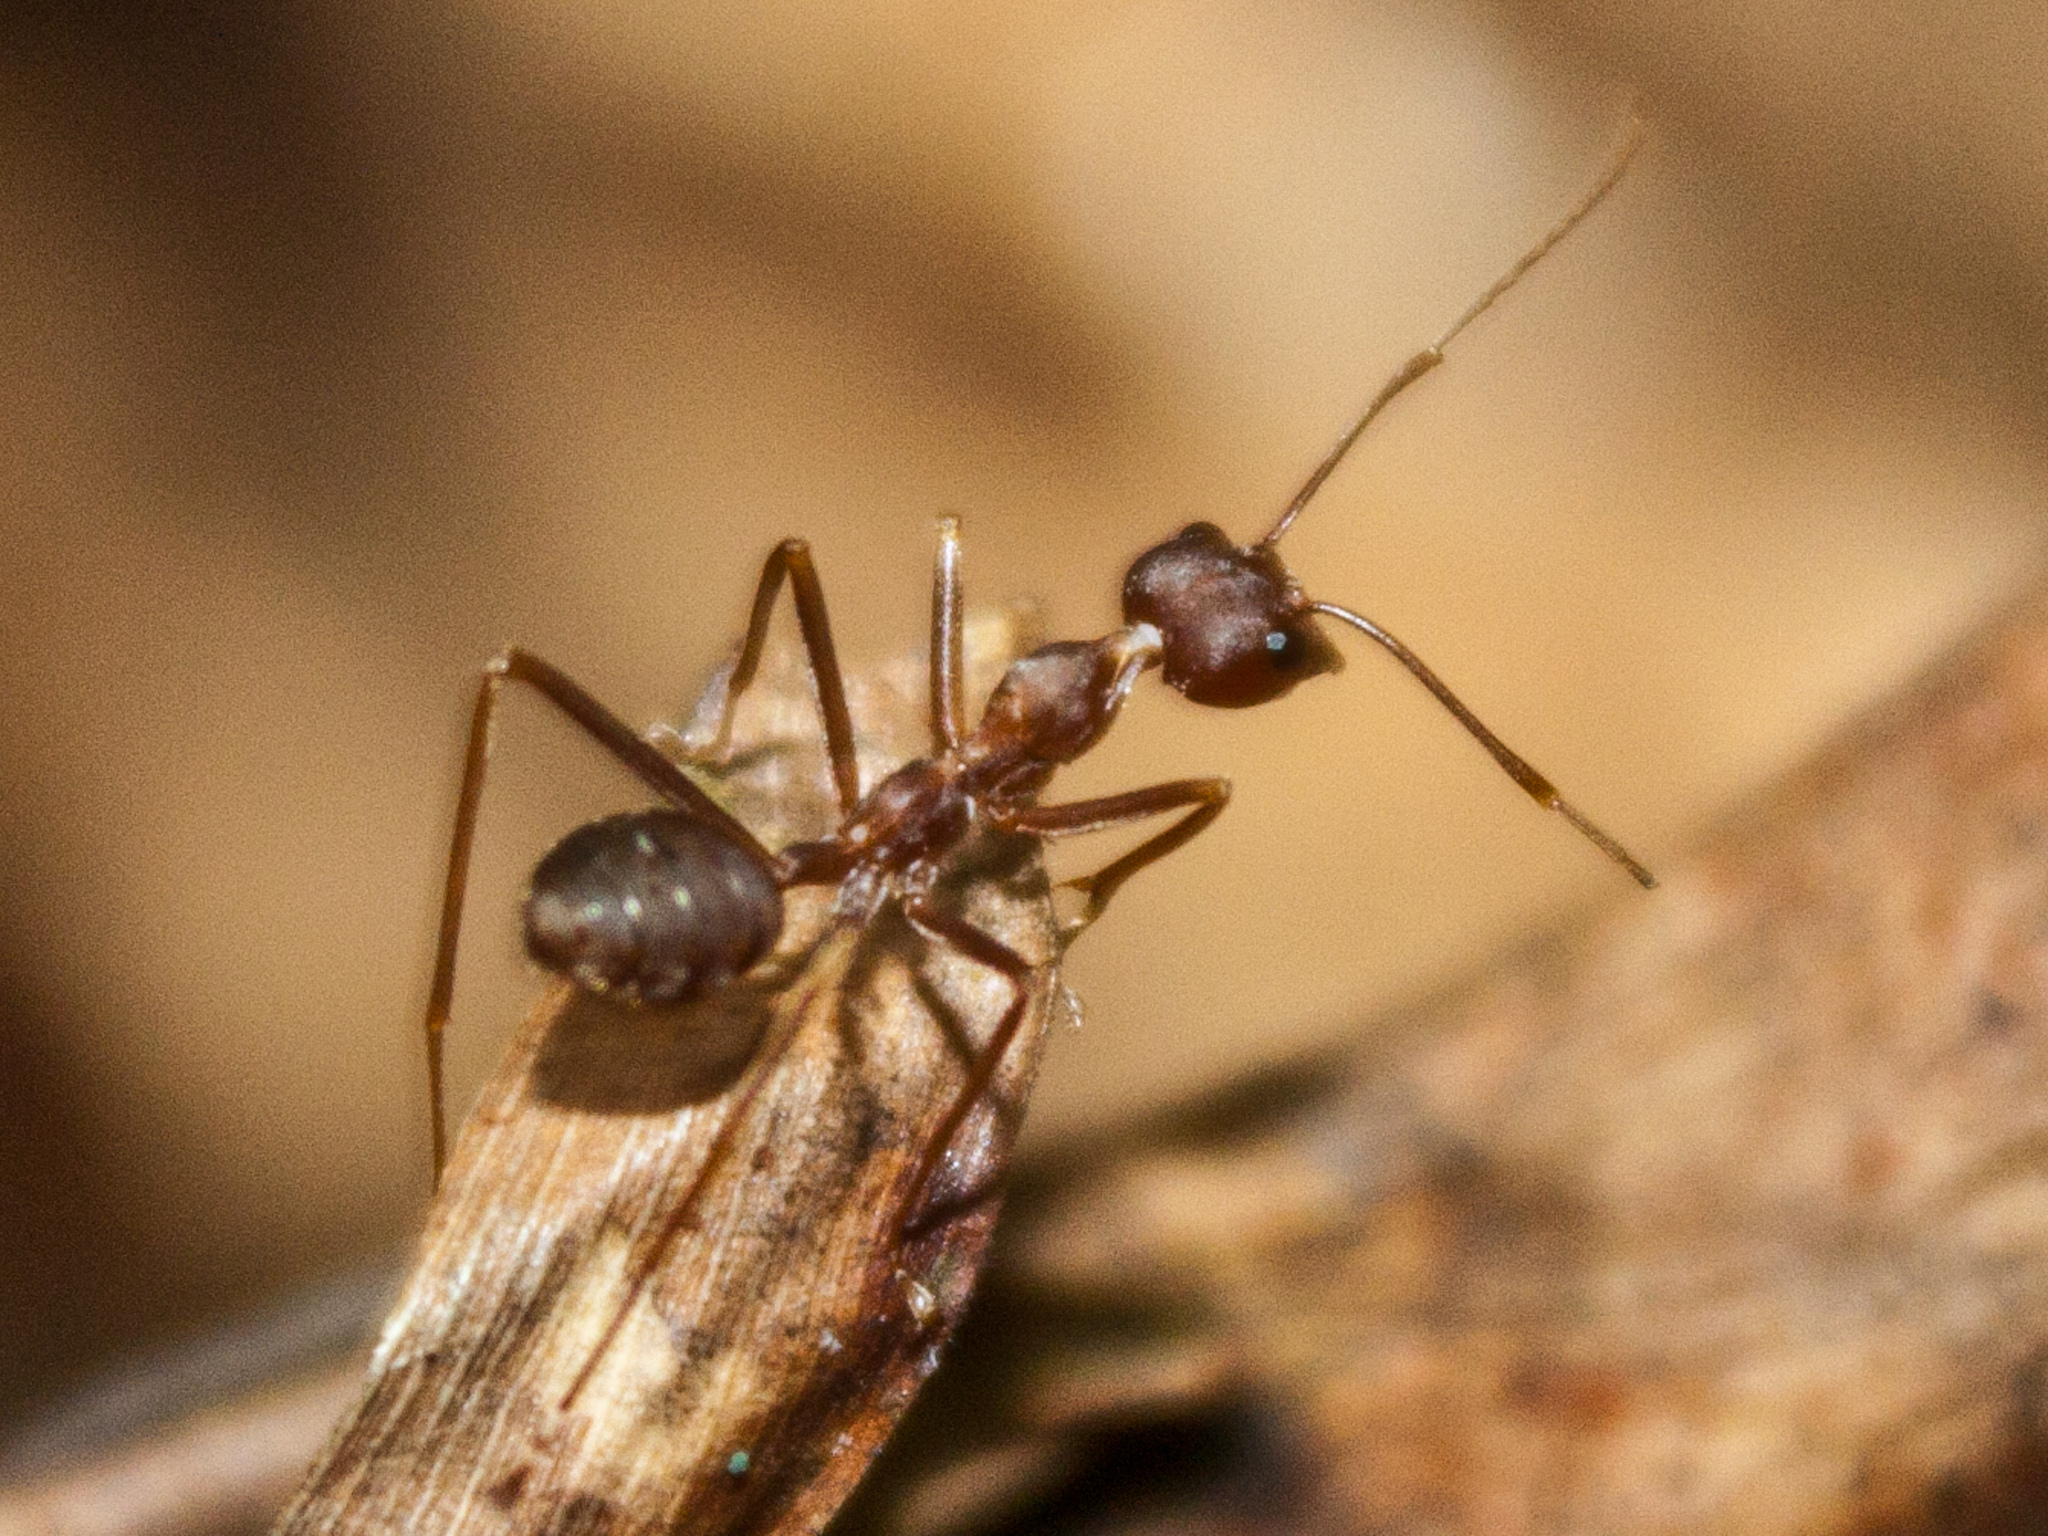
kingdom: Animalia
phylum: Arthropoda
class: Insecta
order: Hymenoptera
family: Formicidae
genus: Oecophylla
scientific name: Oecophylla smaragdina
